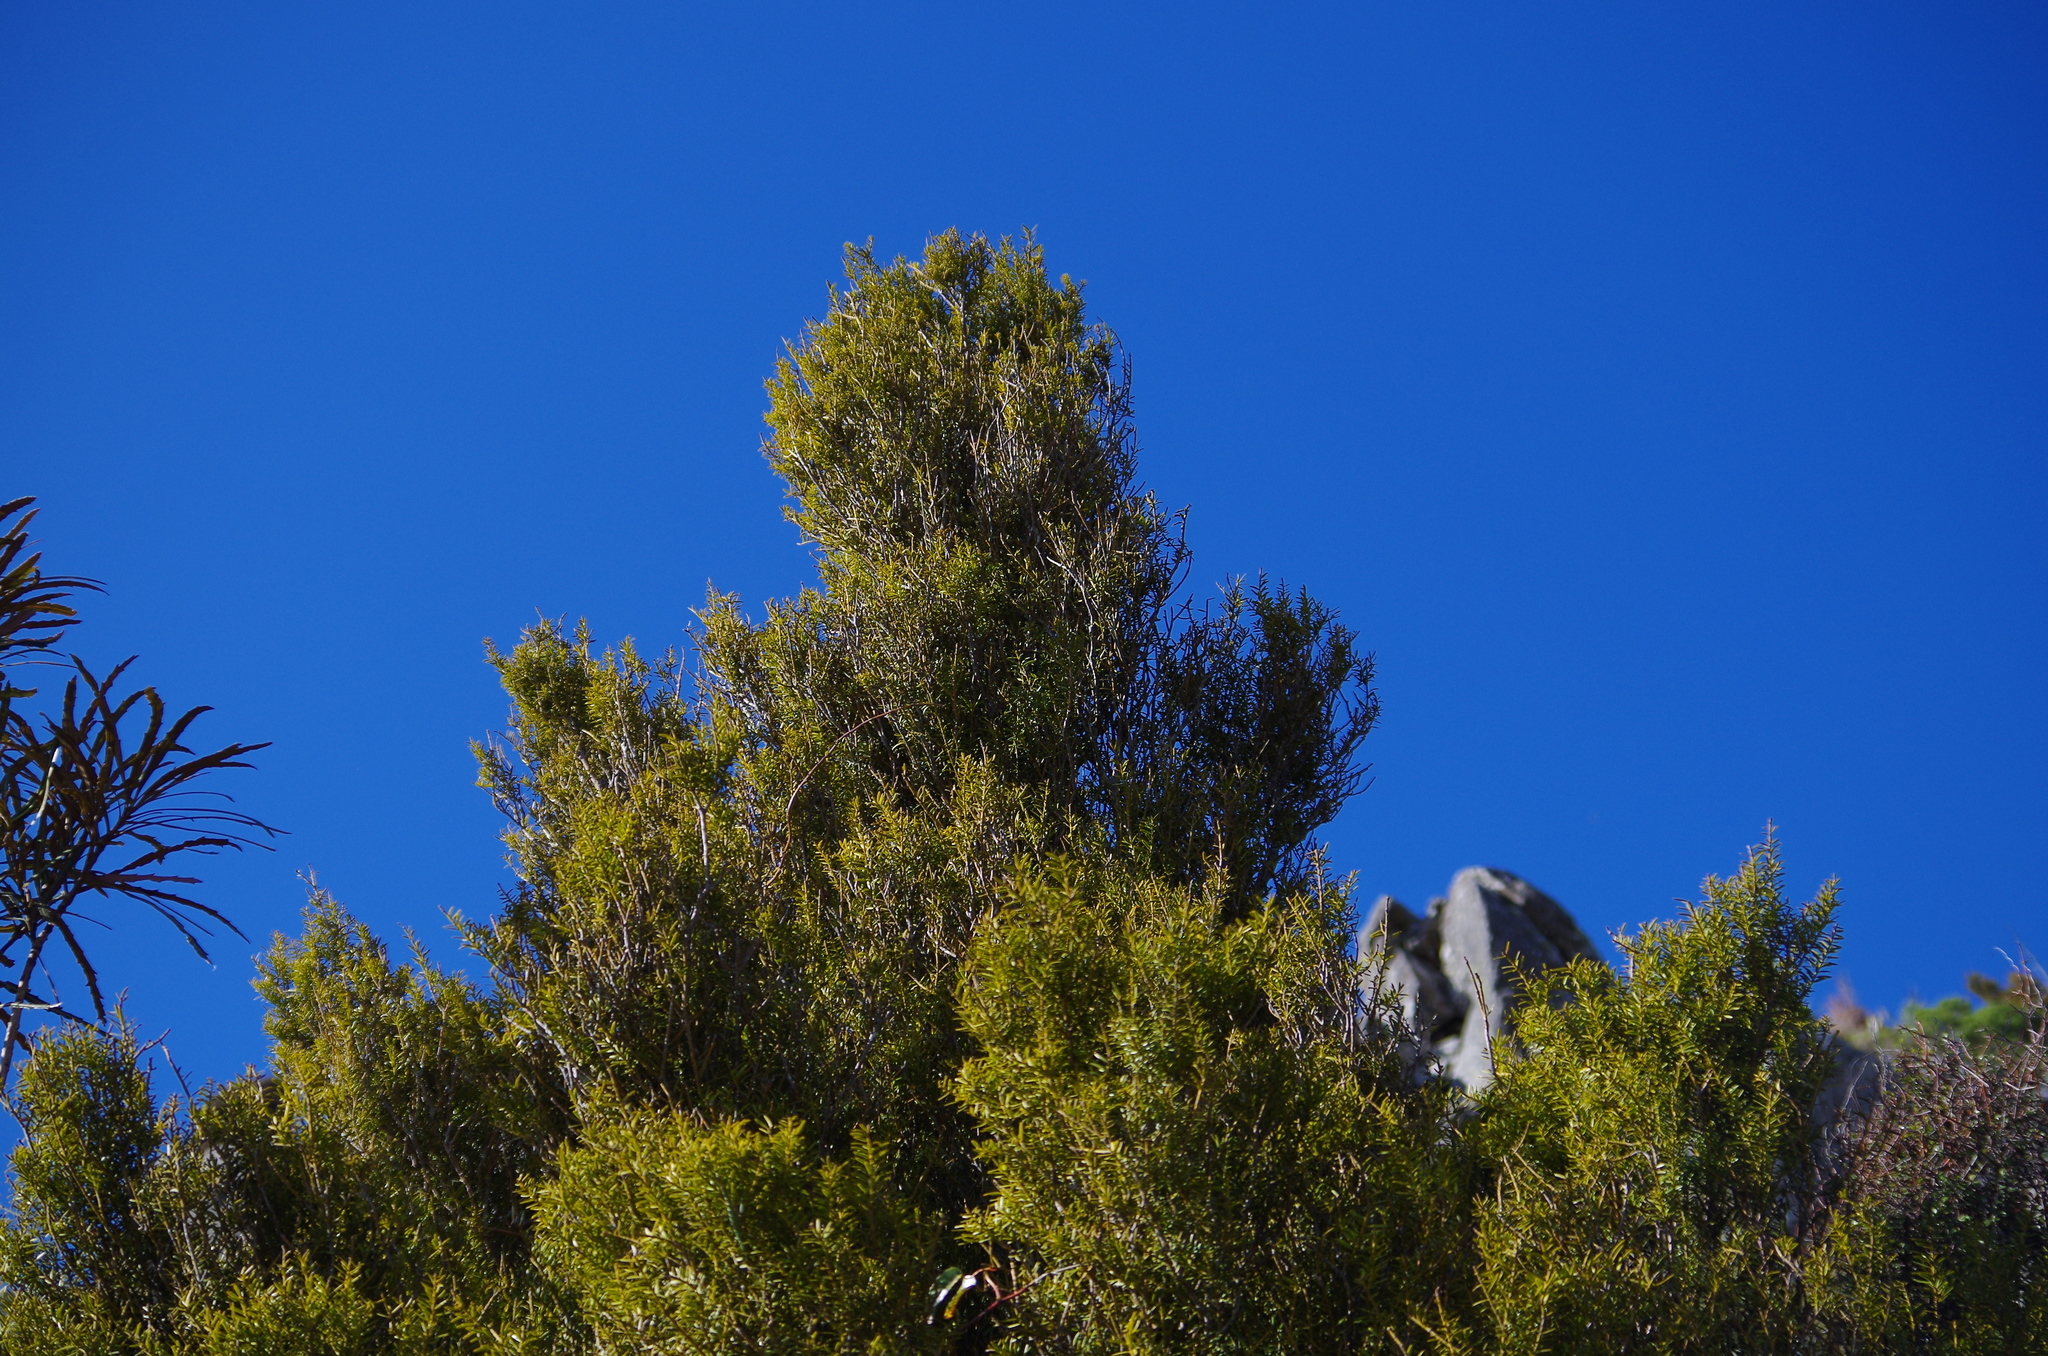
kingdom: Plantae
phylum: Tracheophyta
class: Pinopsida
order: Pinales
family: Podocarpaceae
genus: Podocarpus
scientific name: Podocarpus totara
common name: Totara
